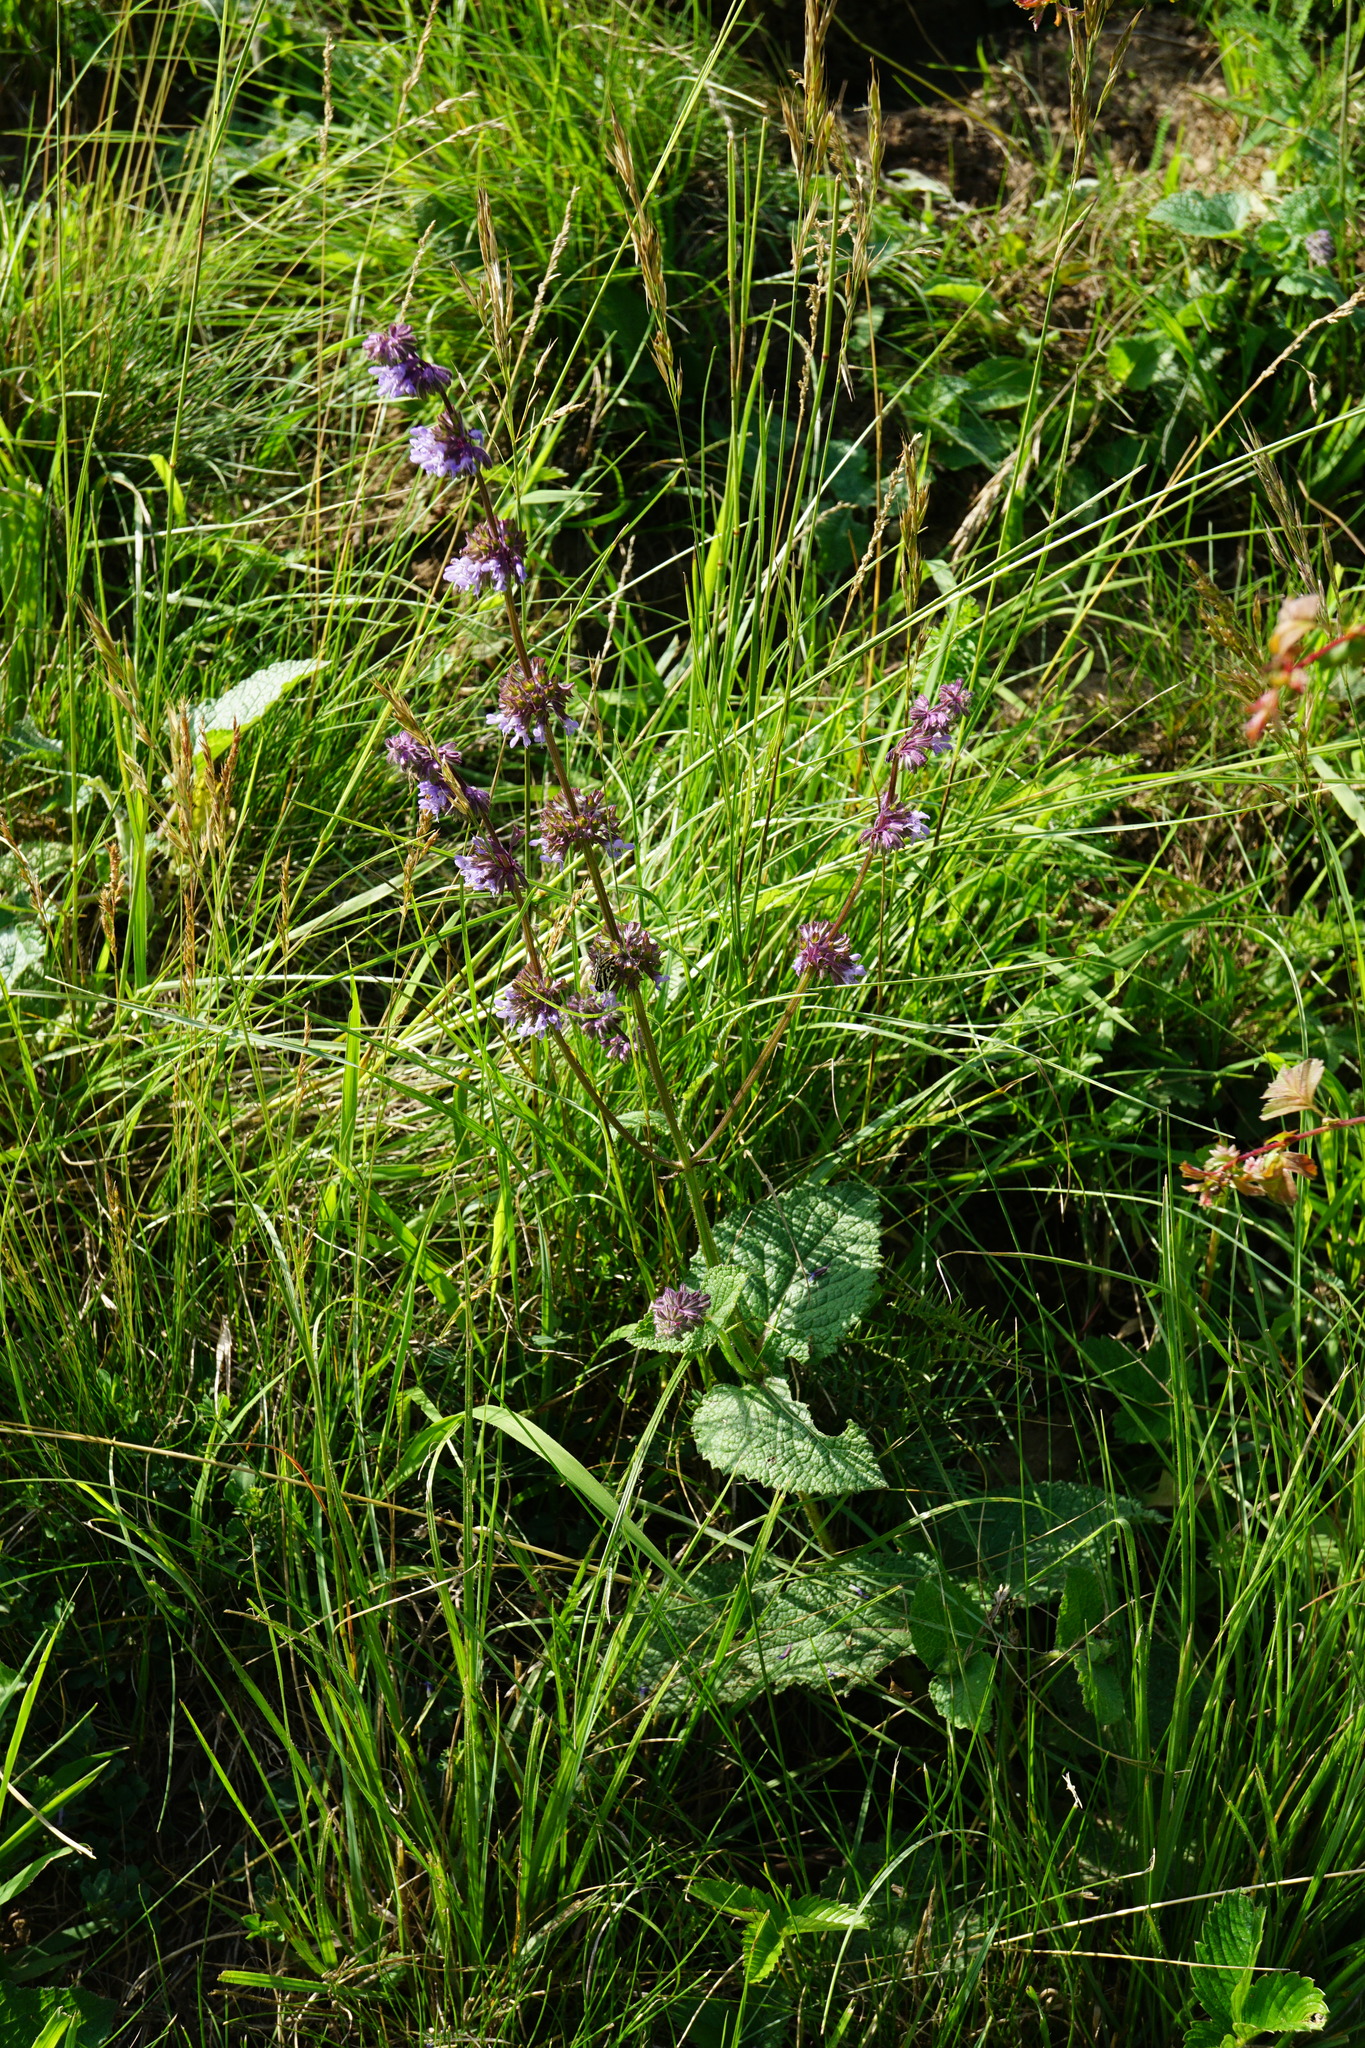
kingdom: Plantae
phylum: Tracheophyta
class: Magnoliopsida
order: Lamiales
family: Lamiaceae
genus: Salvia
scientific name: Salvia verticillata
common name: Whorled clary
